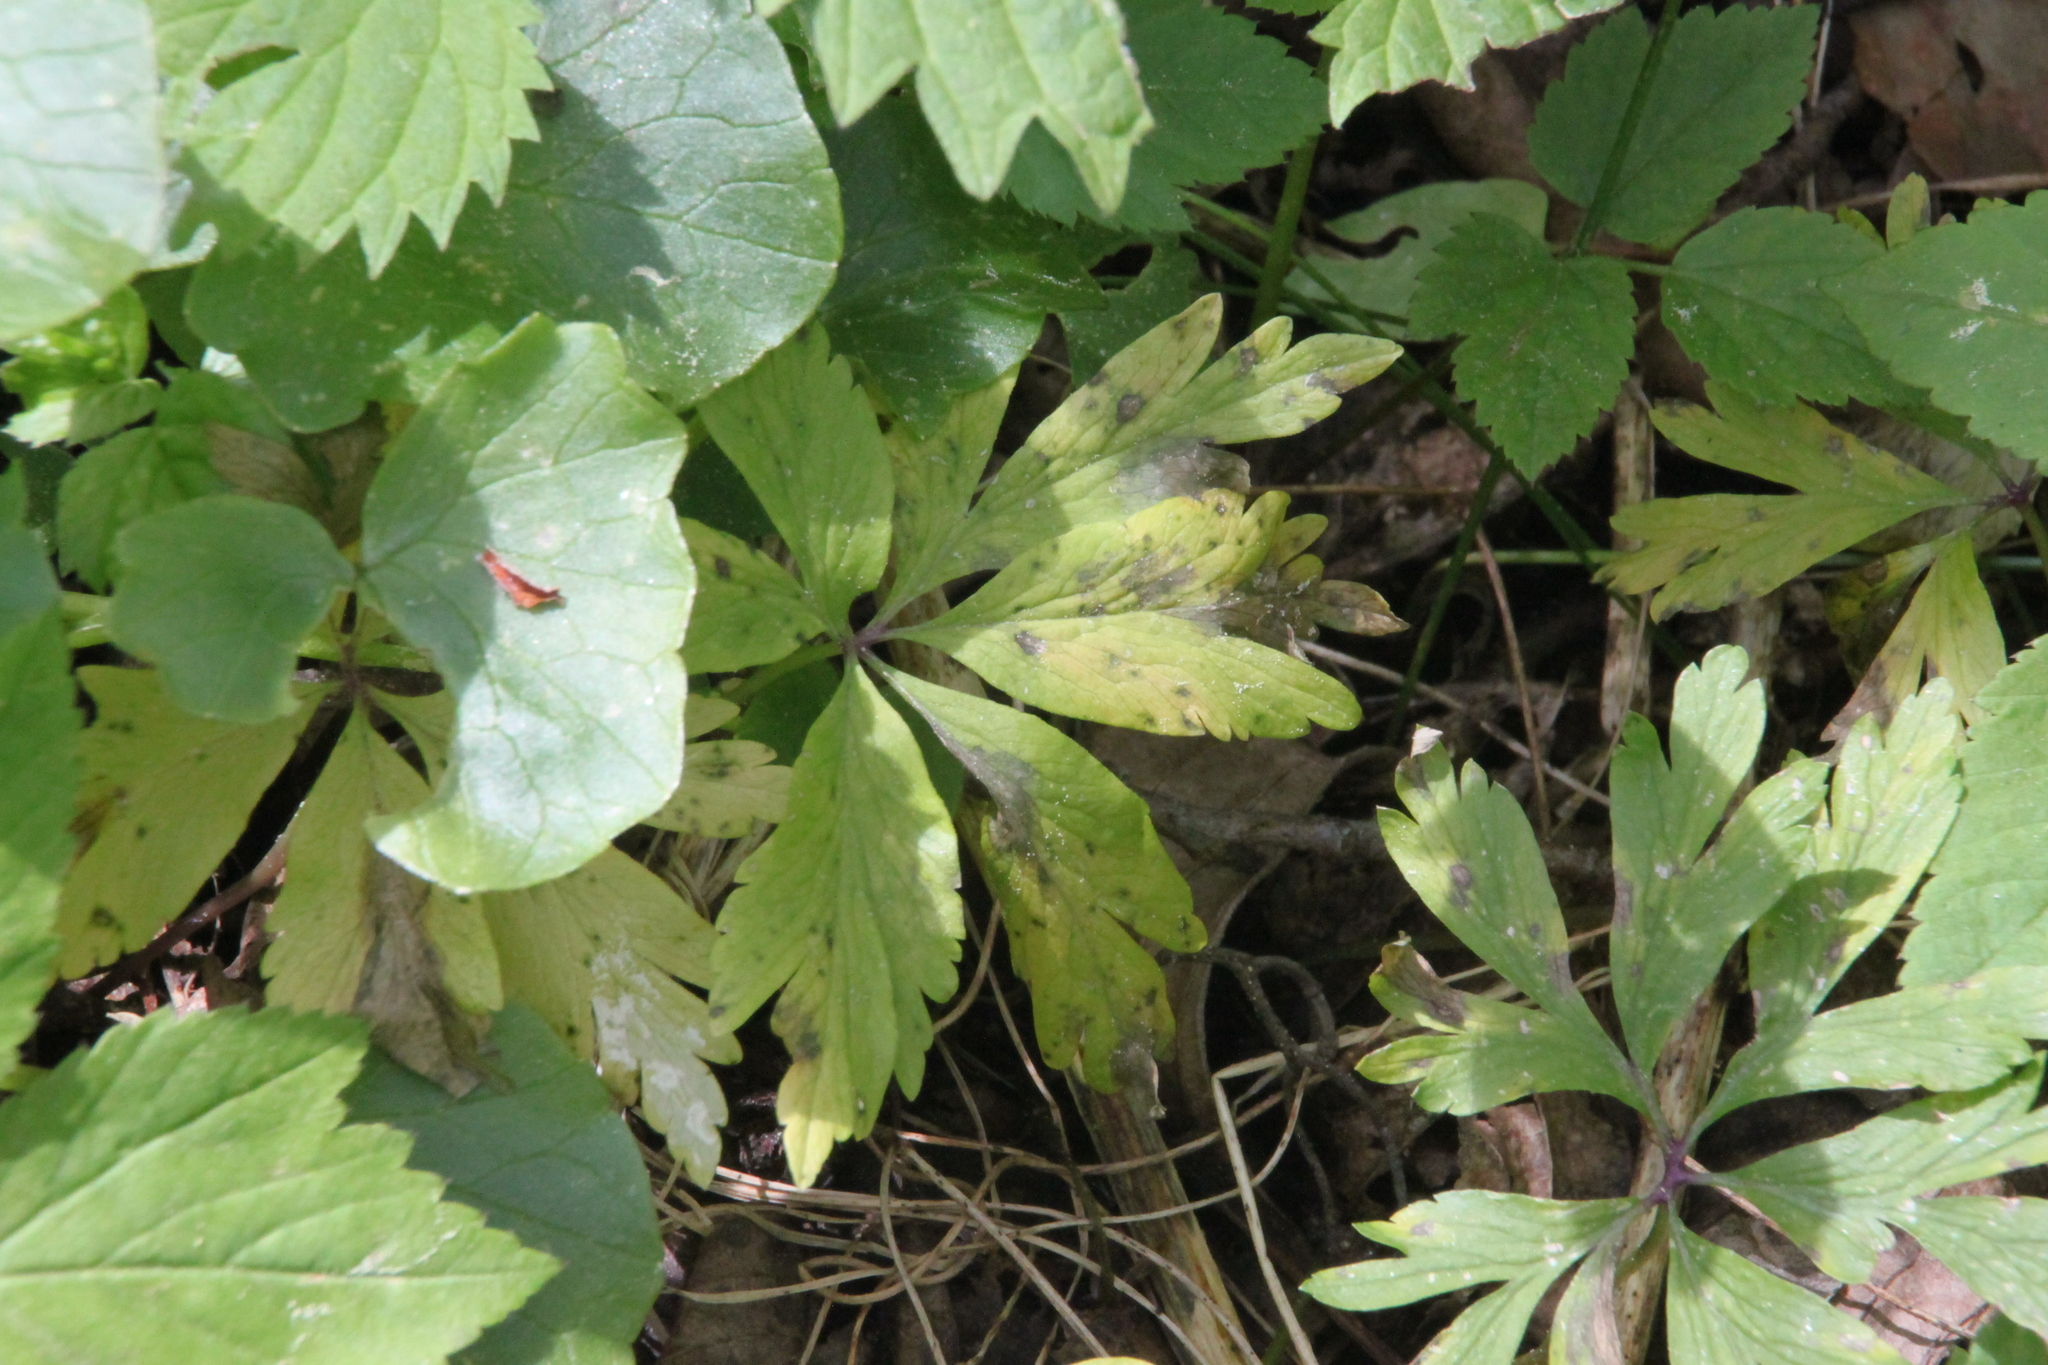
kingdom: Plantae
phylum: Tracheophyta
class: Magnoliopsida
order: Ranunculales
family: Ranunculaceae
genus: Anemone
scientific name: Anemone ranunculoides
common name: Yellow anemone
